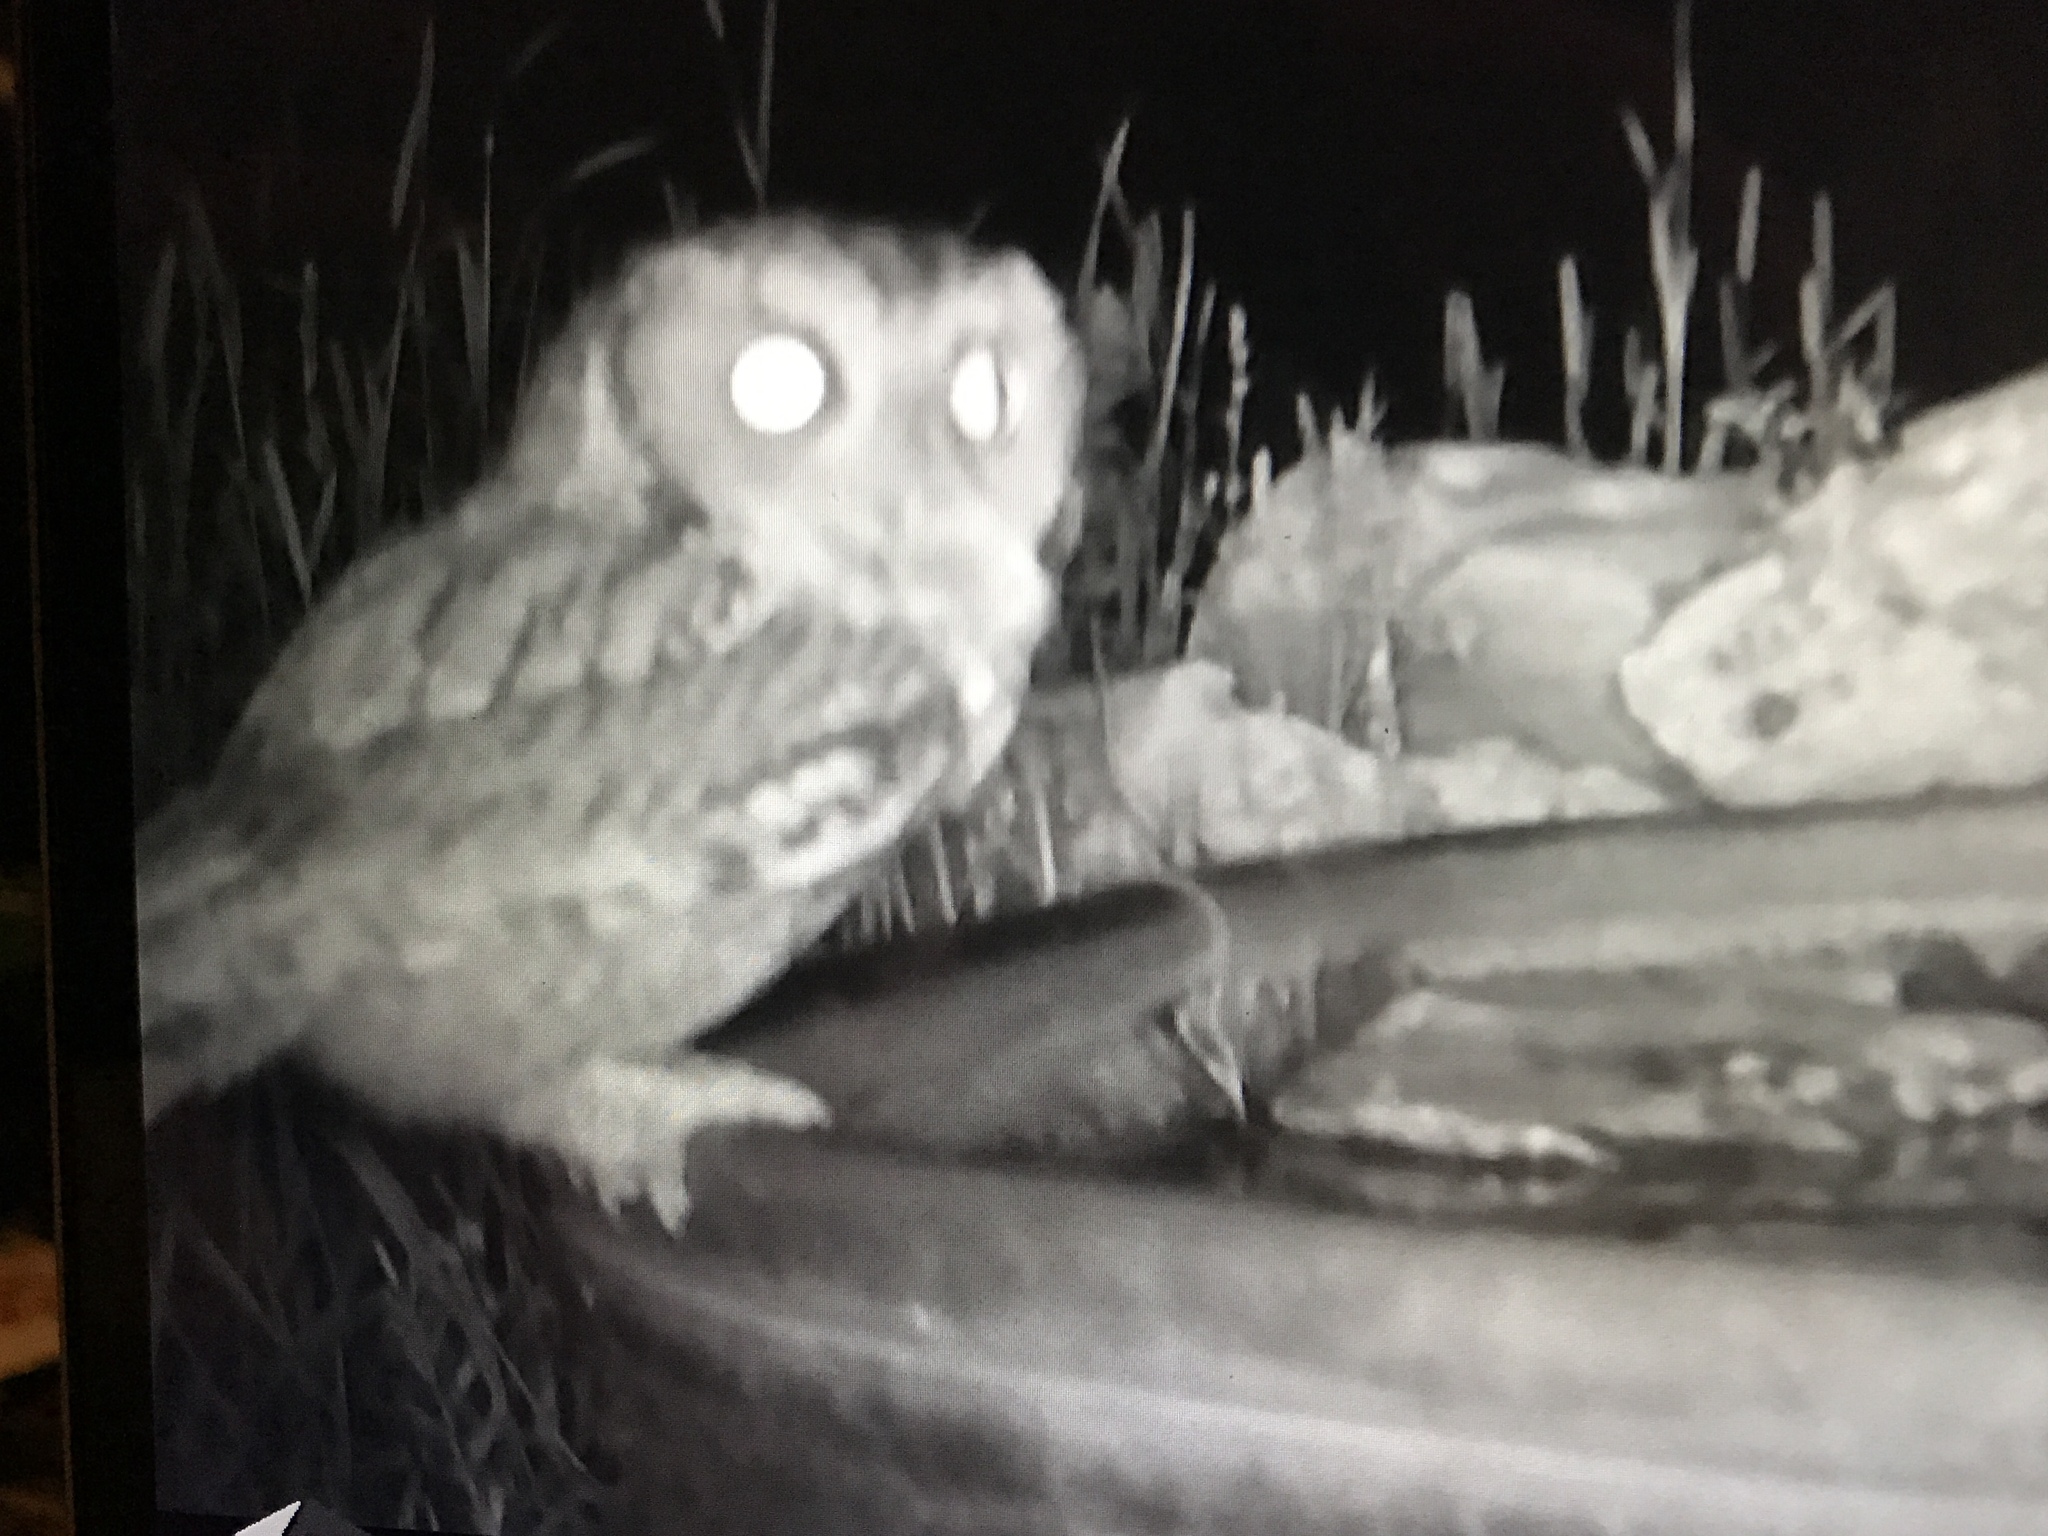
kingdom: Animalia
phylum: Chordata
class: Aves
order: Strigiformes
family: Strigidae
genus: Megascops
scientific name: Megascops asio
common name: Eastern screech-owl
